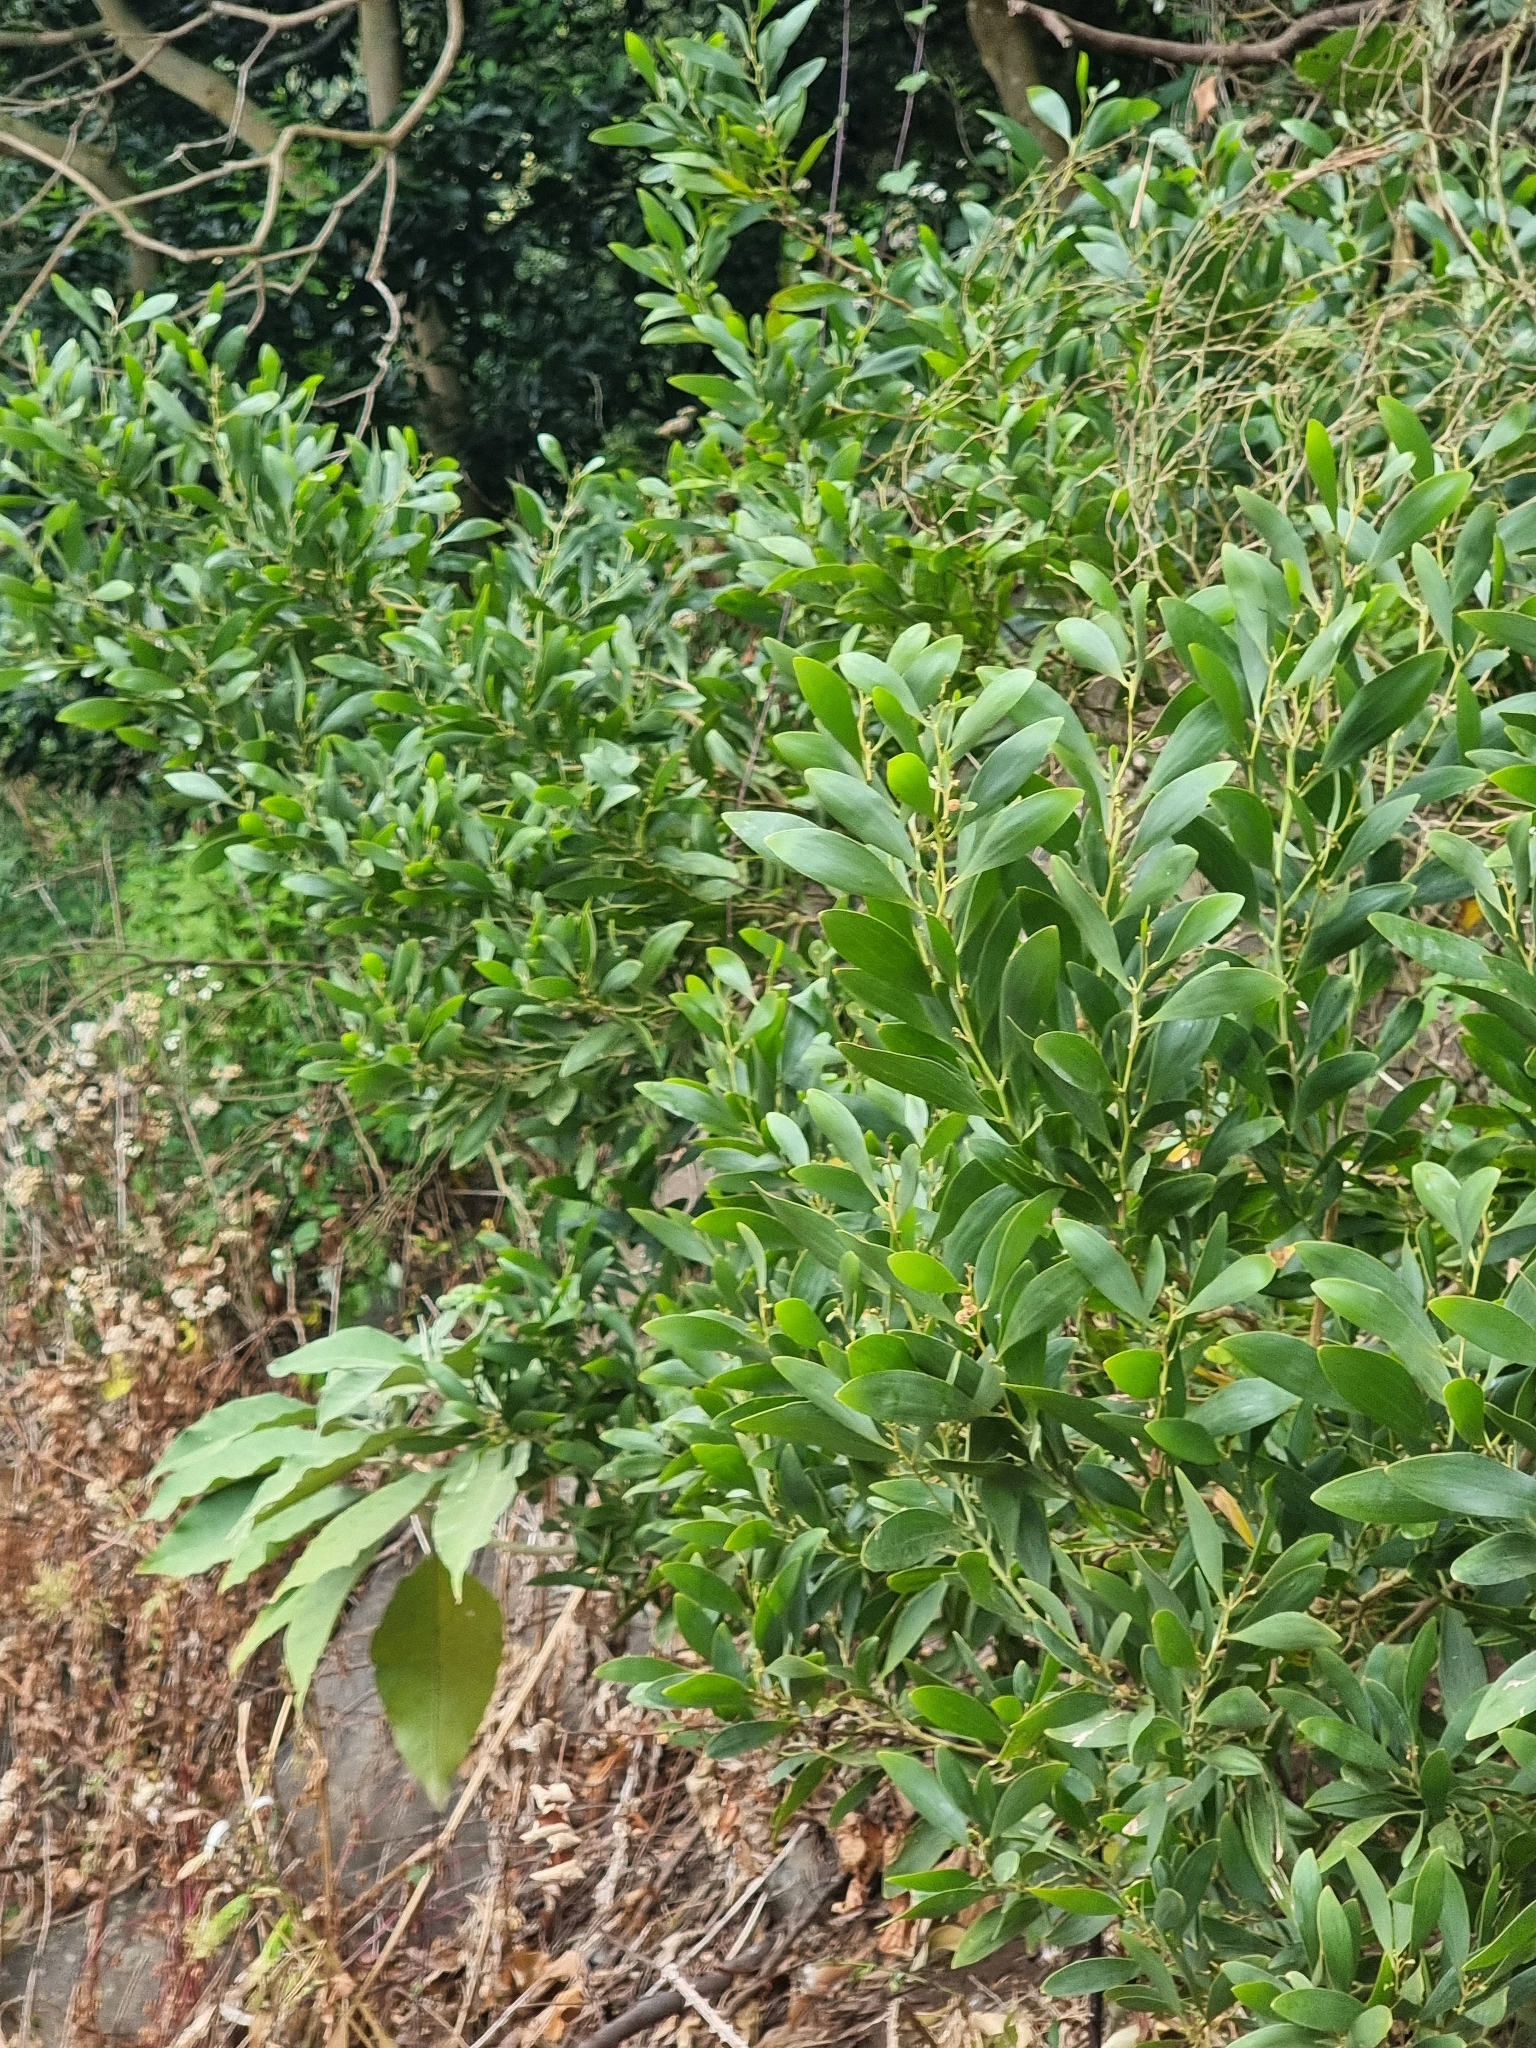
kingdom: Plantae
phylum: Tracheophyta
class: Magnoliopsida
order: Fabales
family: Fabaceae
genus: Acacia
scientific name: Acacia melanoxylon
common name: Blackwood
